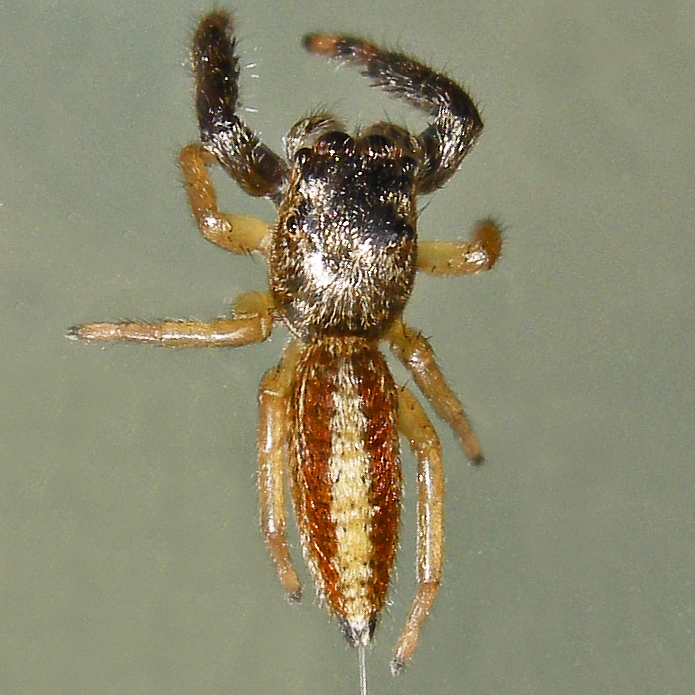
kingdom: Animalia
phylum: Arthropoda
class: Arachnida
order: Araneae
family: Salticidae
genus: Marpissa
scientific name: Marpissa formosa
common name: Short-bellied slender jumping spider
